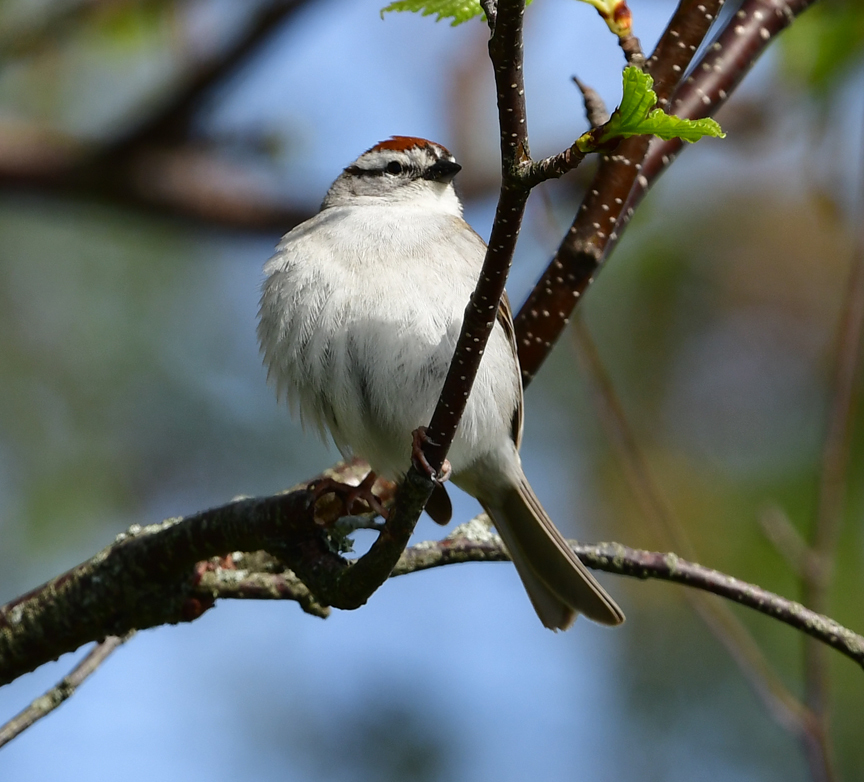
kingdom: Animalia
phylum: Chordata
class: Aves
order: Passeriformes
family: Passerellidae
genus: Spizella
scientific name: Spizella passerina
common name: Chipping sparrow
